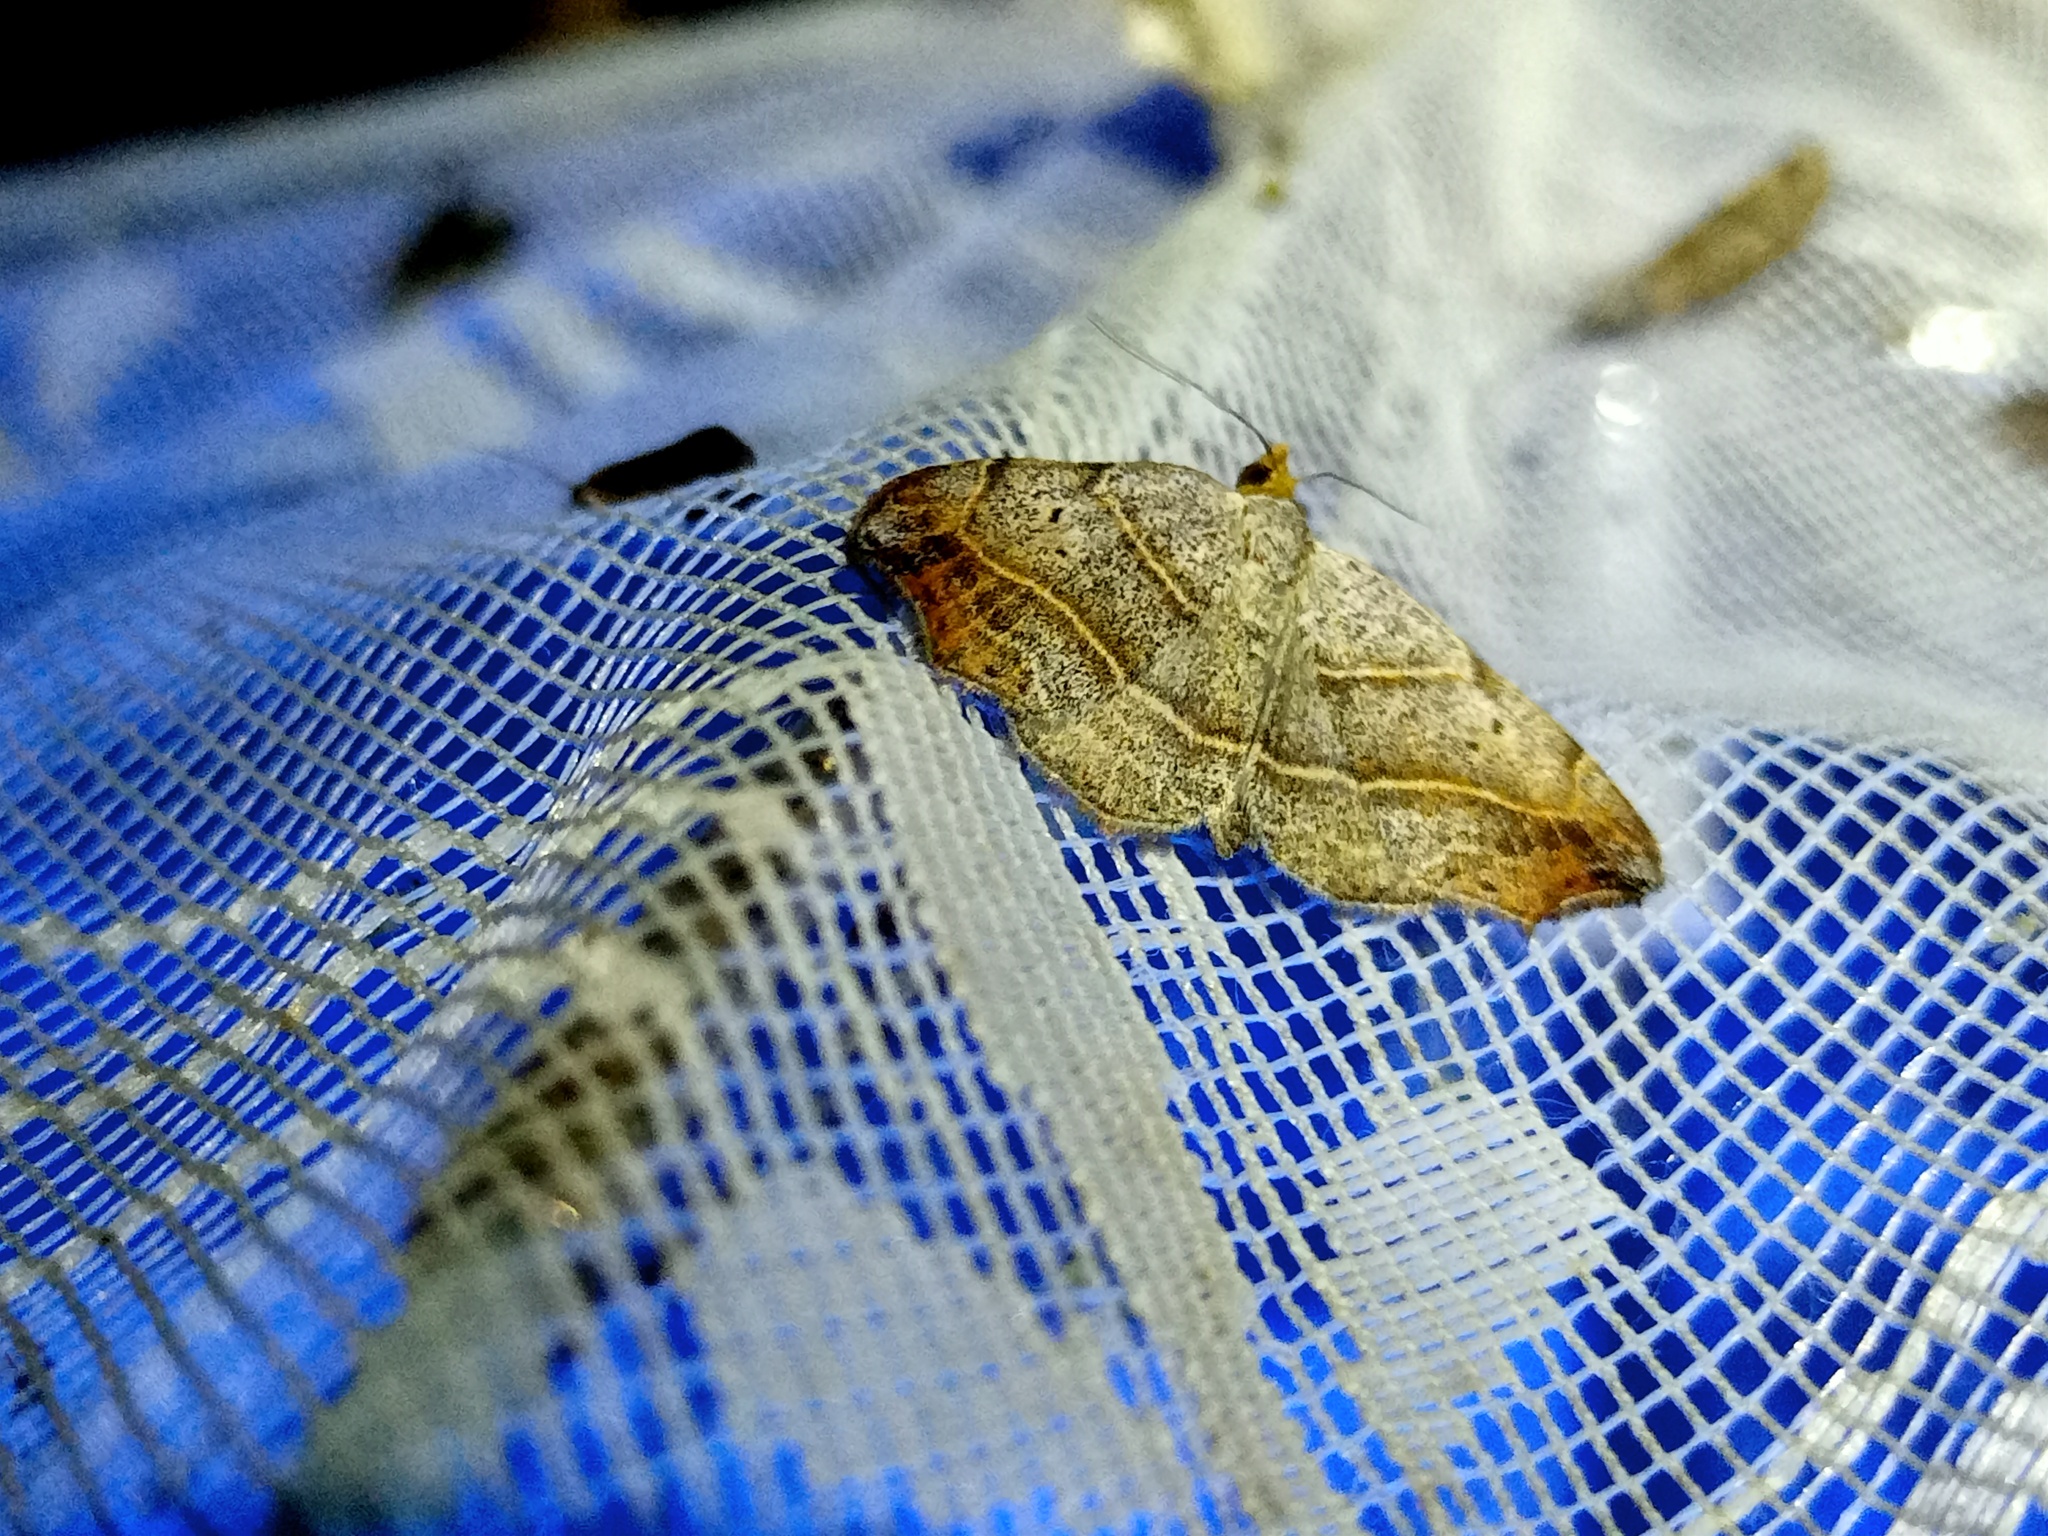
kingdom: Animalia
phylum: Arthropoda
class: Insecta
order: Lepidoptera
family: Erebidae
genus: Laspeyria
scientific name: Laspeyria flexula
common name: Beautiful hook-tip
